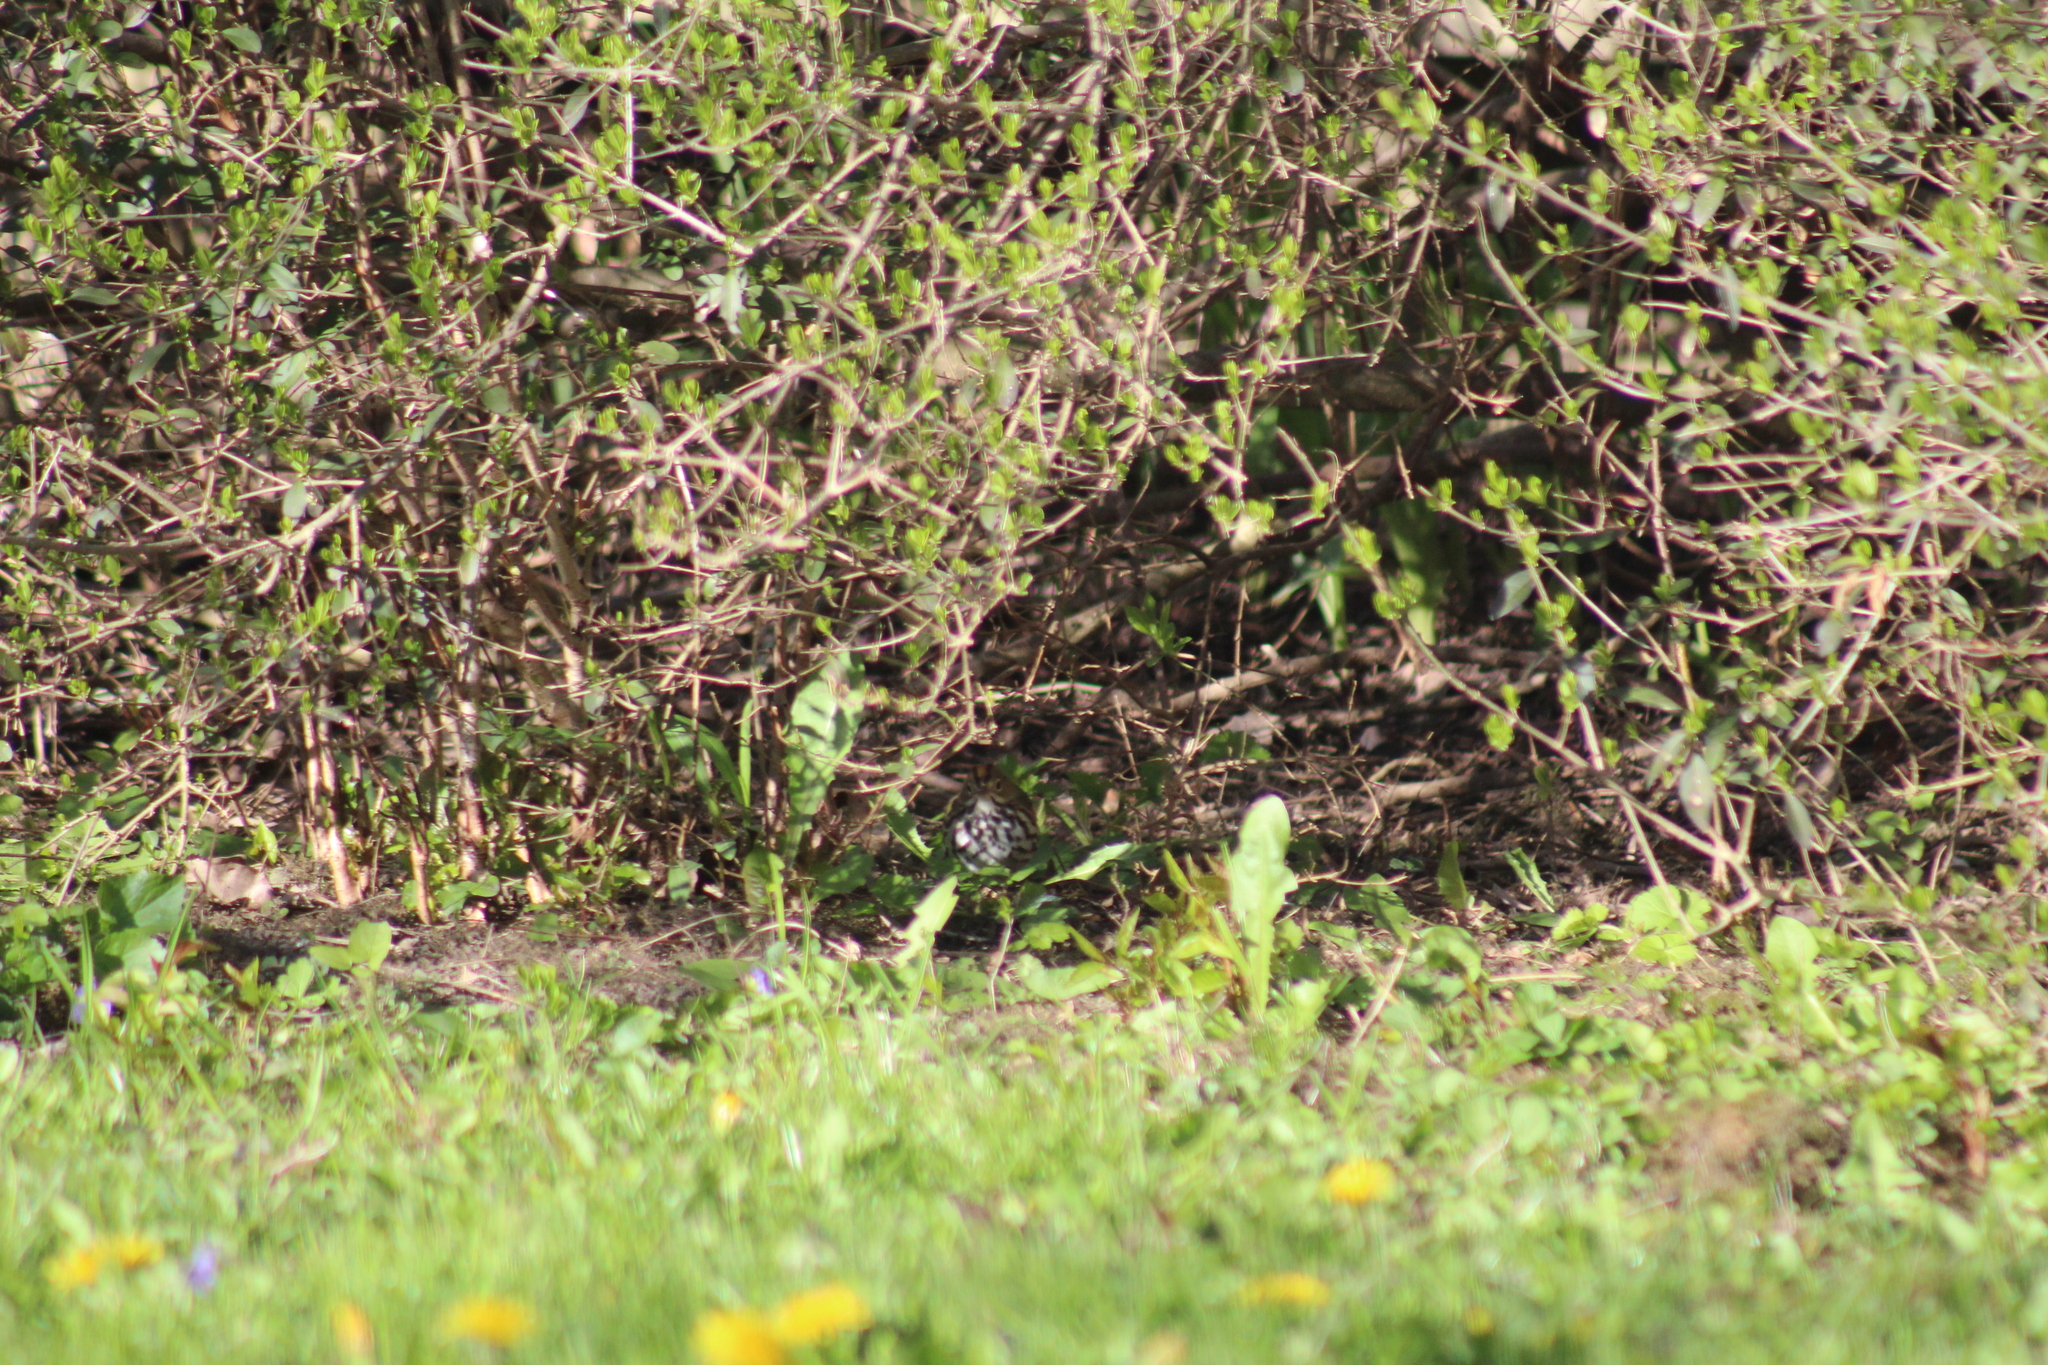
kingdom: Animalia
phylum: Chordata
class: Aves
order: Passeriformes
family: Parulidae
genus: Seiurus
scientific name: Seiurus aurocapilla
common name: Ovenbird
